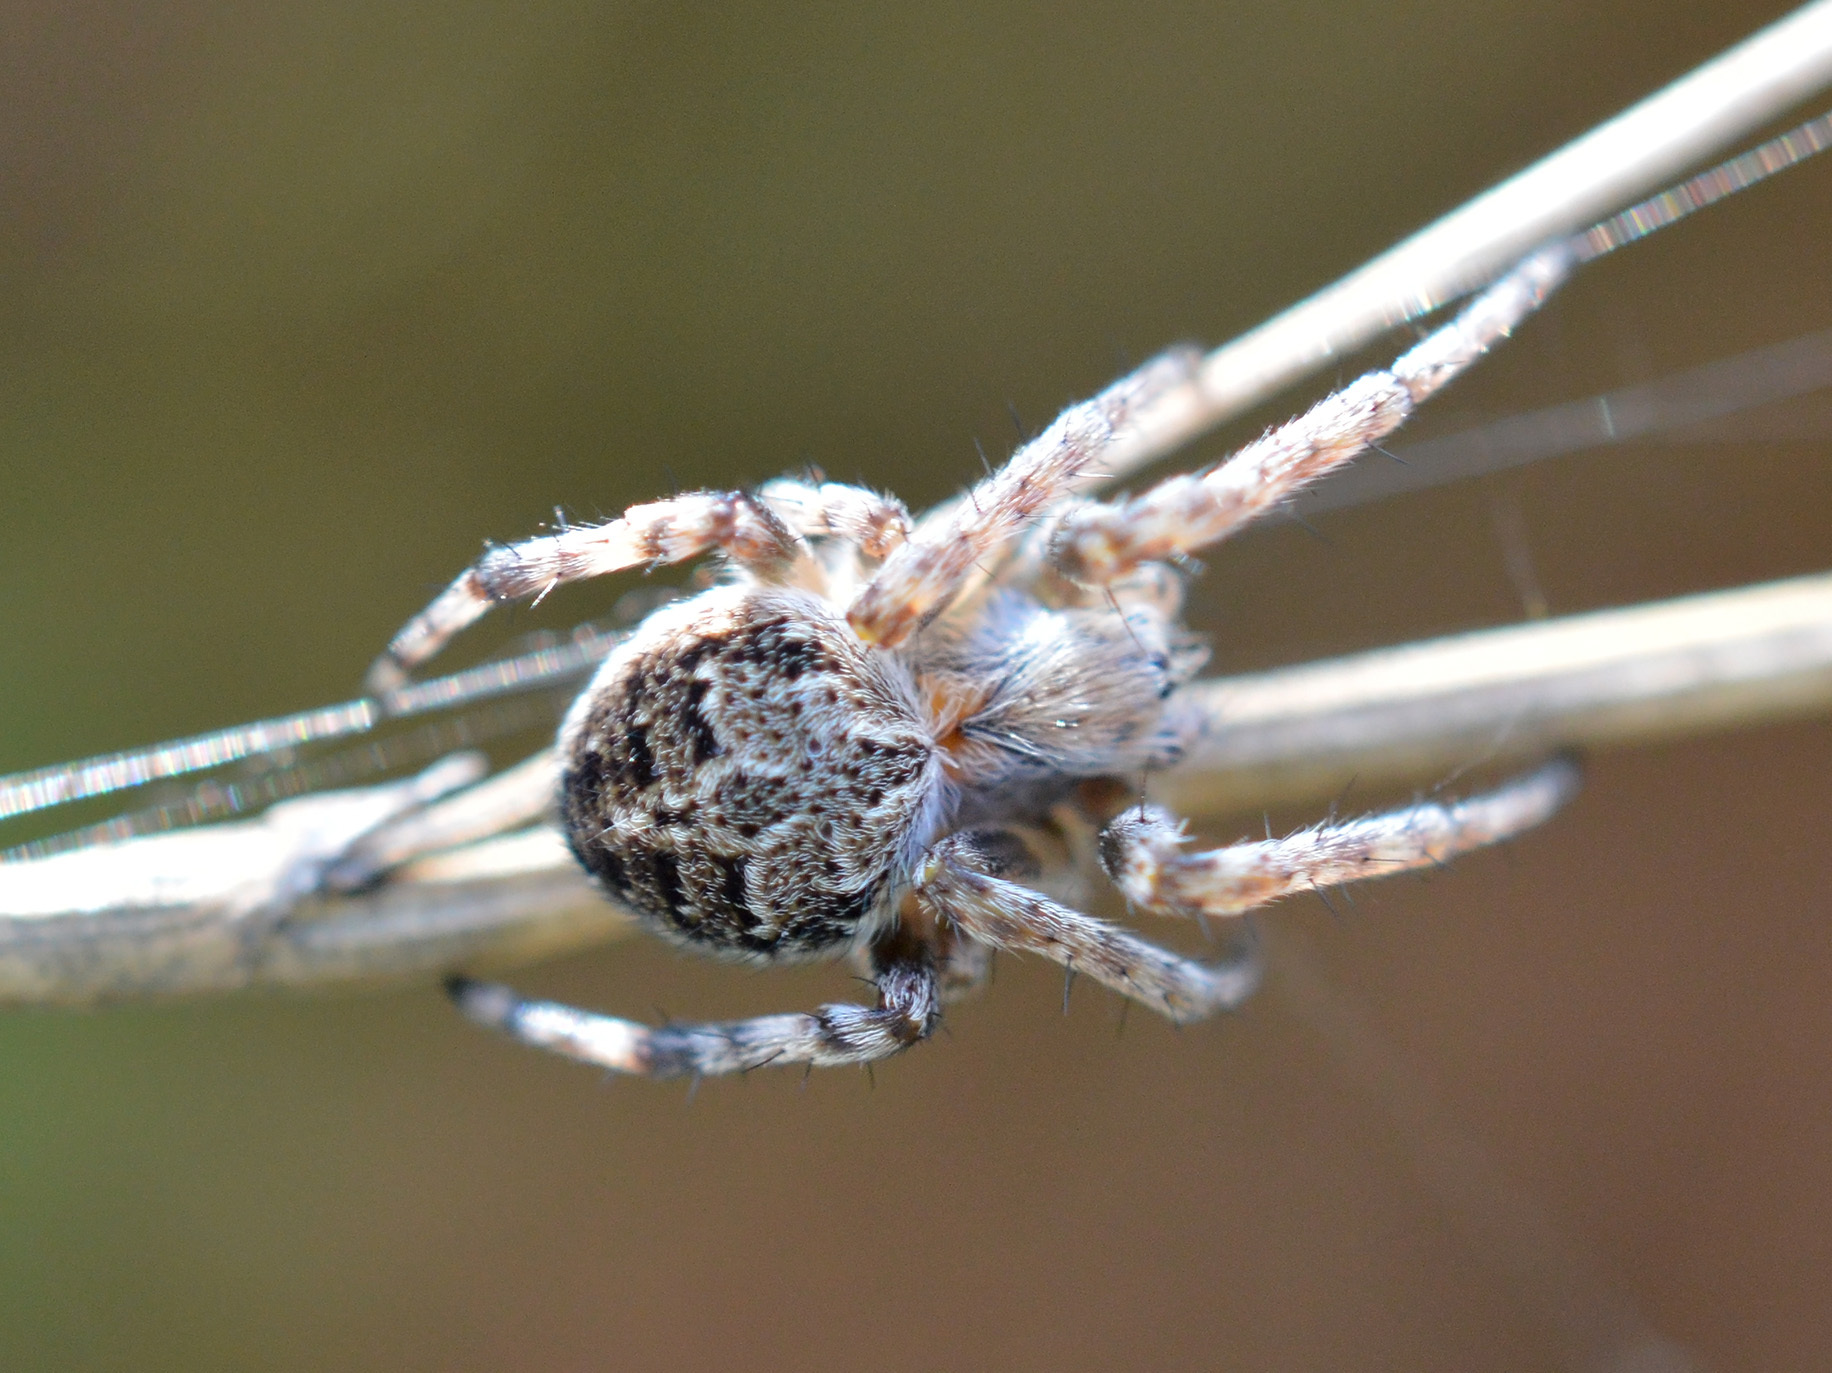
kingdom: Animalia
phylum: Arthropoda
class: Arachnida
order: Araneae
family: Araneidae
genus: Agalenatea
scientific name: Agalenatea redii
